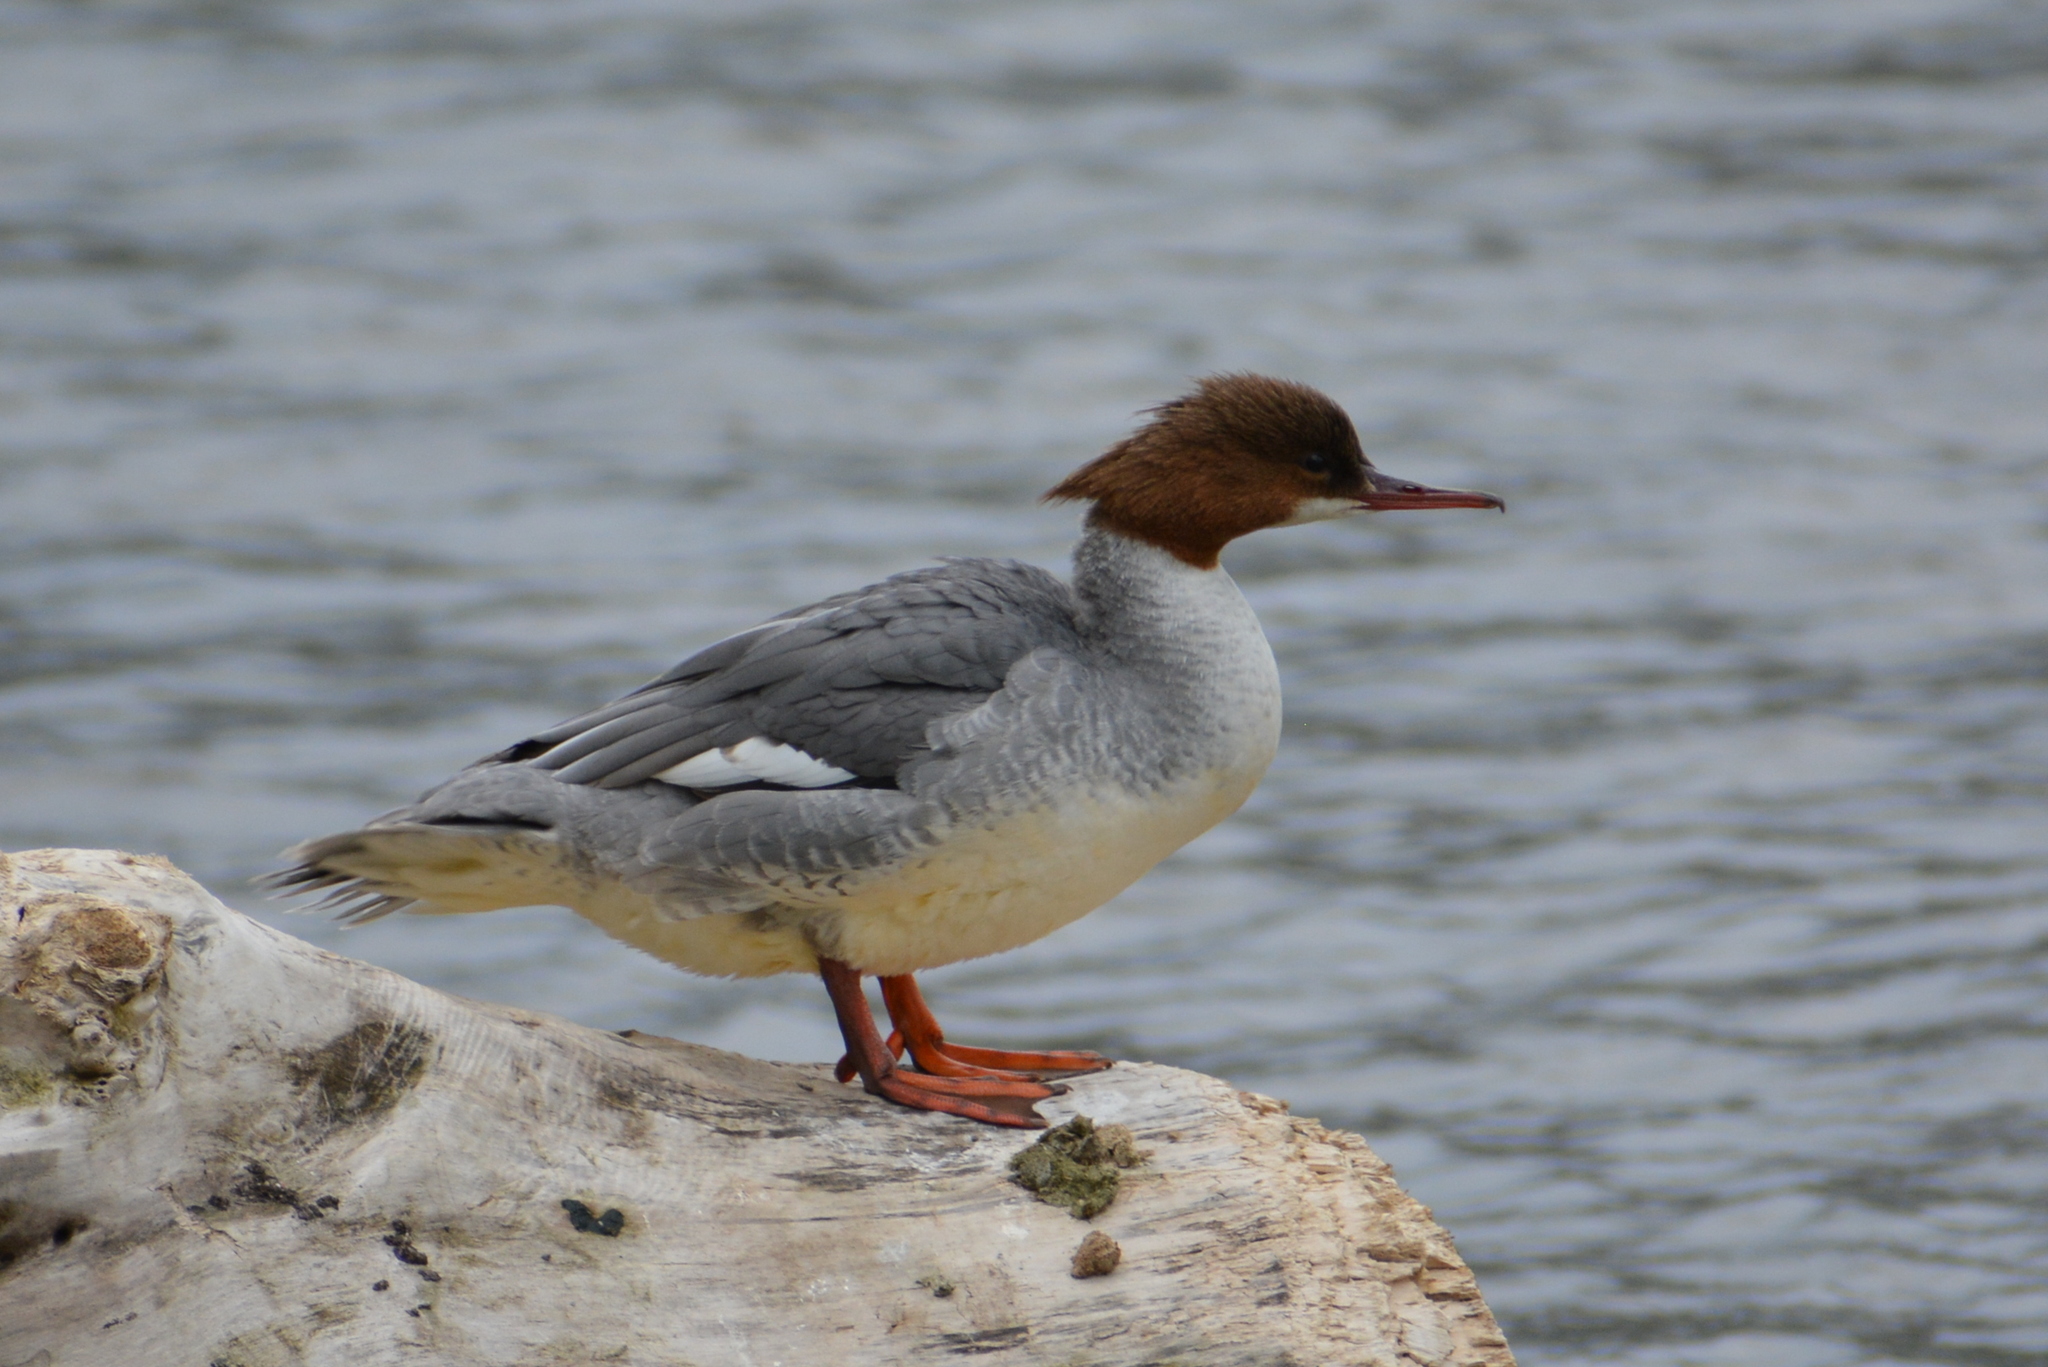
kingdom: Animalia
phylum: Chordata
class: Aves
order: Anseriformes
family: Anatidae
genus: Mergus
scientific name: Mergus merganser
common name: Common merganser
